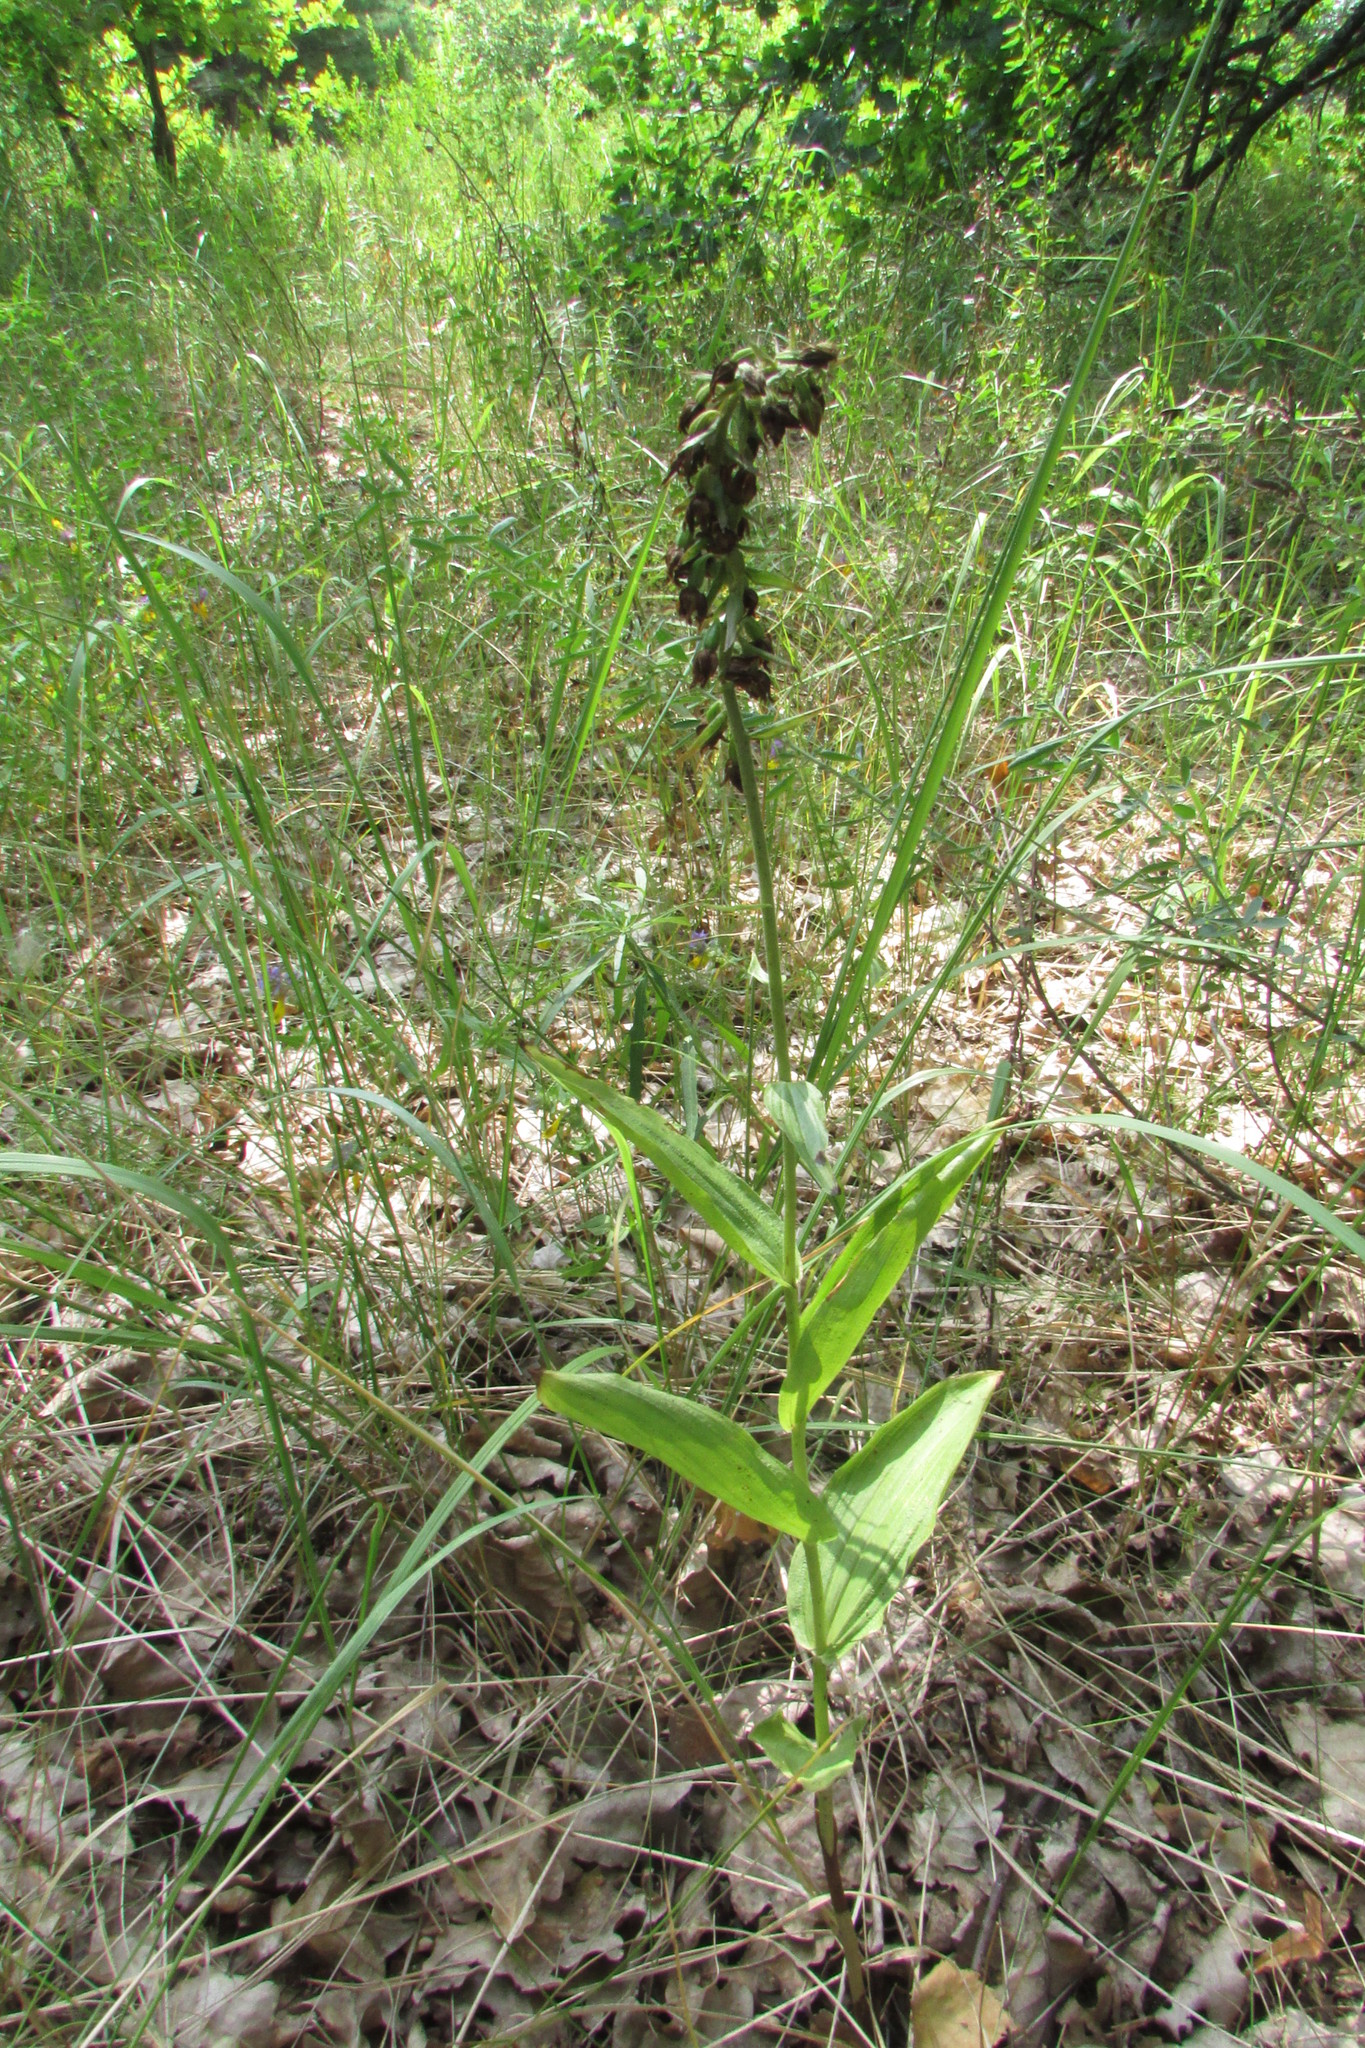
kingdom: Plantae
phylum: Tracheophyta
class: Liliopsida
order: Asparagales
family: Orchidaceae
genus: Epipactis
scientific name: Epipactis helleborine
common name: Broad-leaved helleborine
